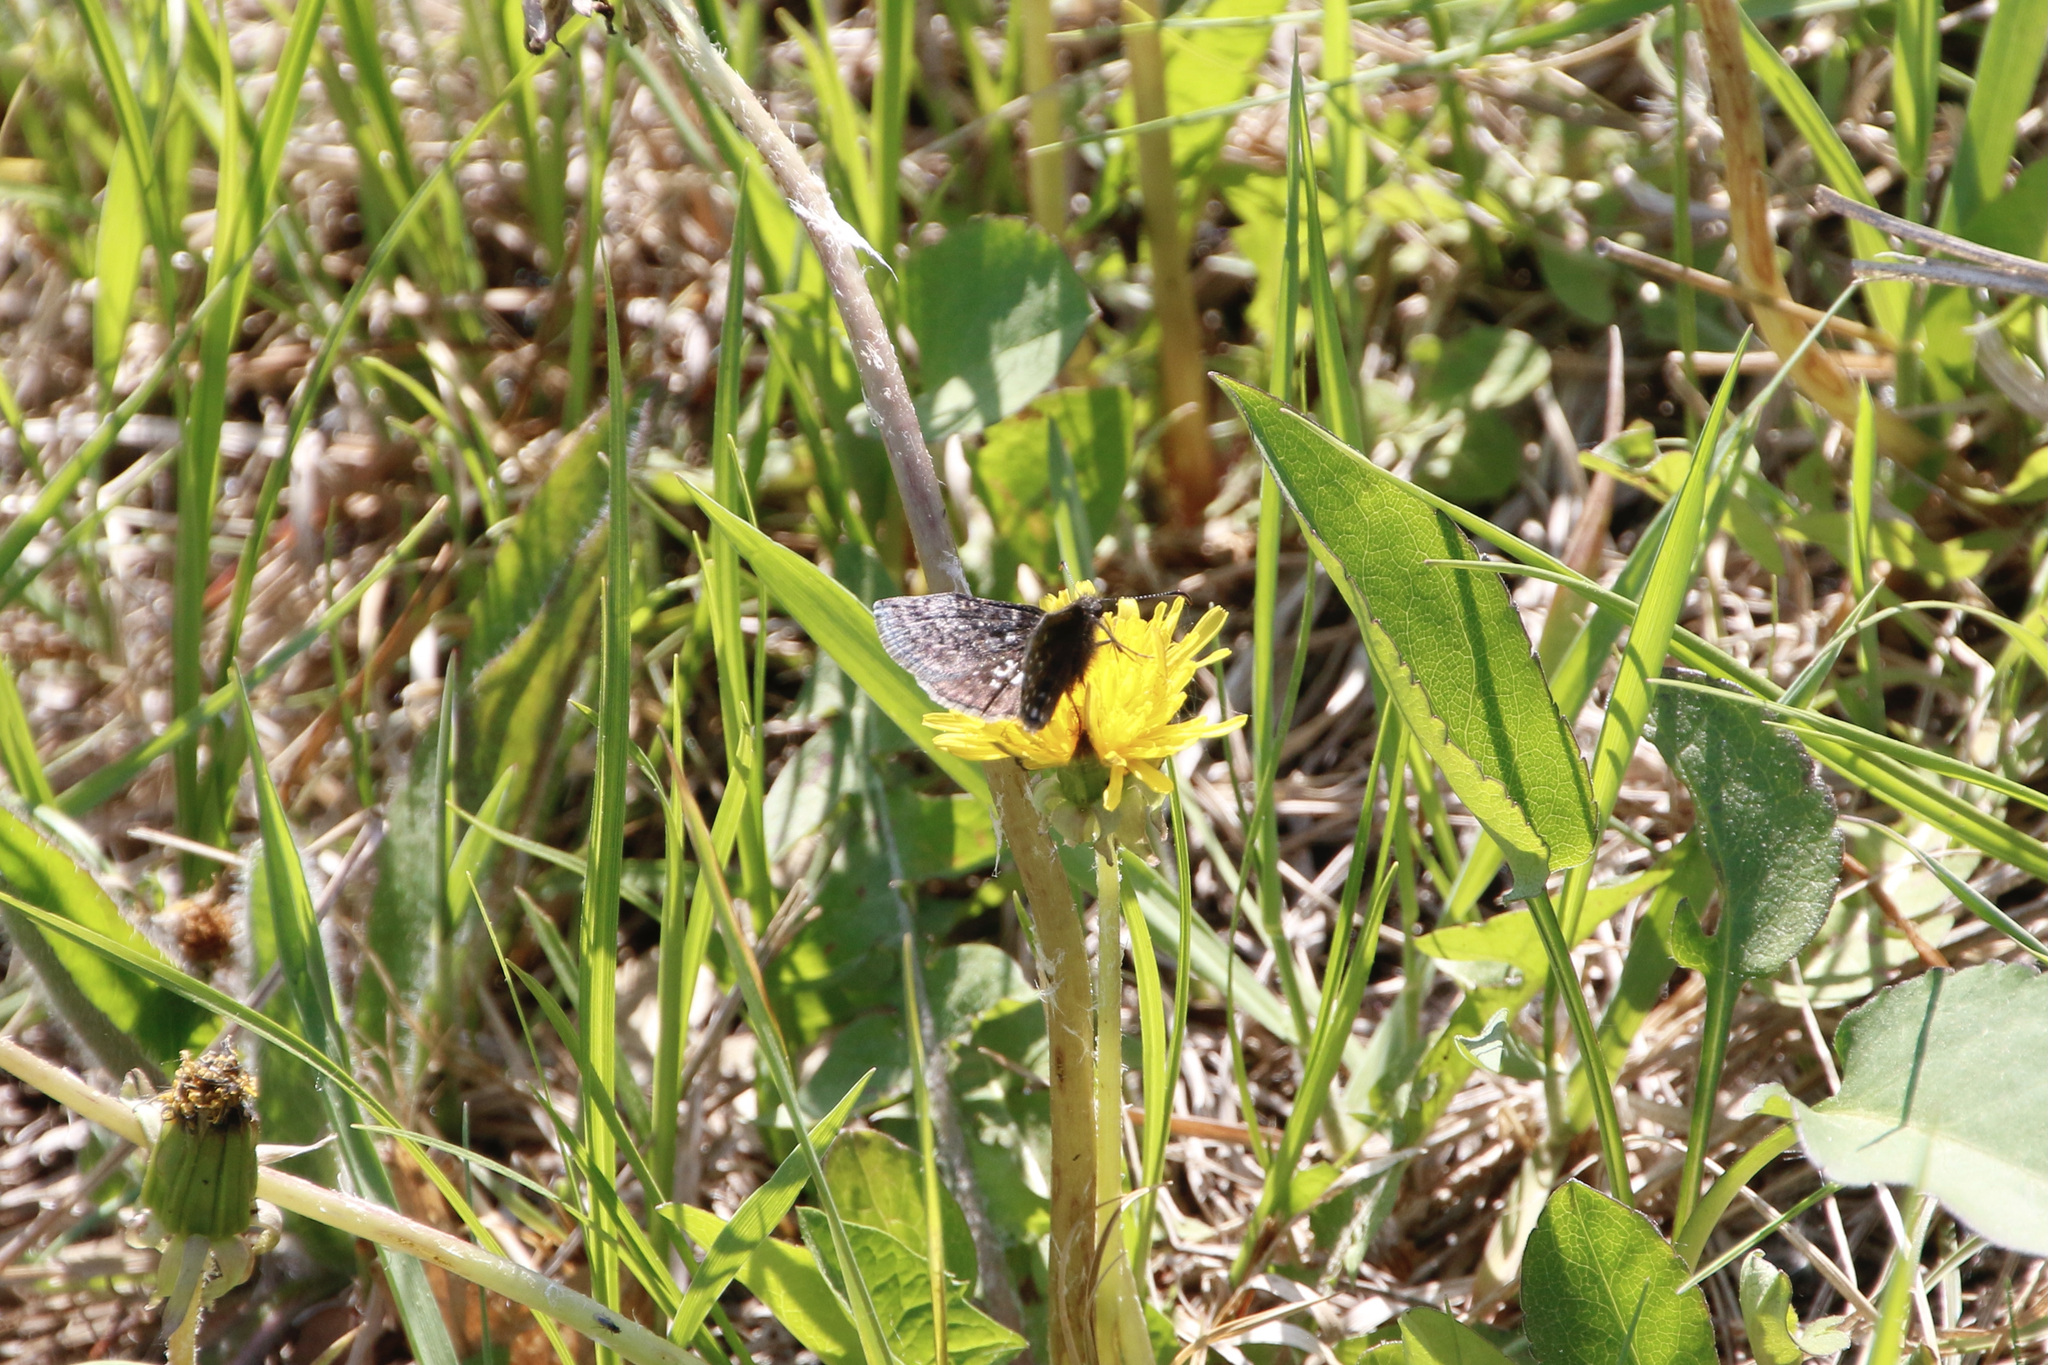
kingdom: Animalia
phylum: Arthropoda
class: Insecta
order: Lepidoptera
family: Hesperiidae
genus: Erynnis
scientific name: Erynnis icelus
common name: Dreamy duskywing
